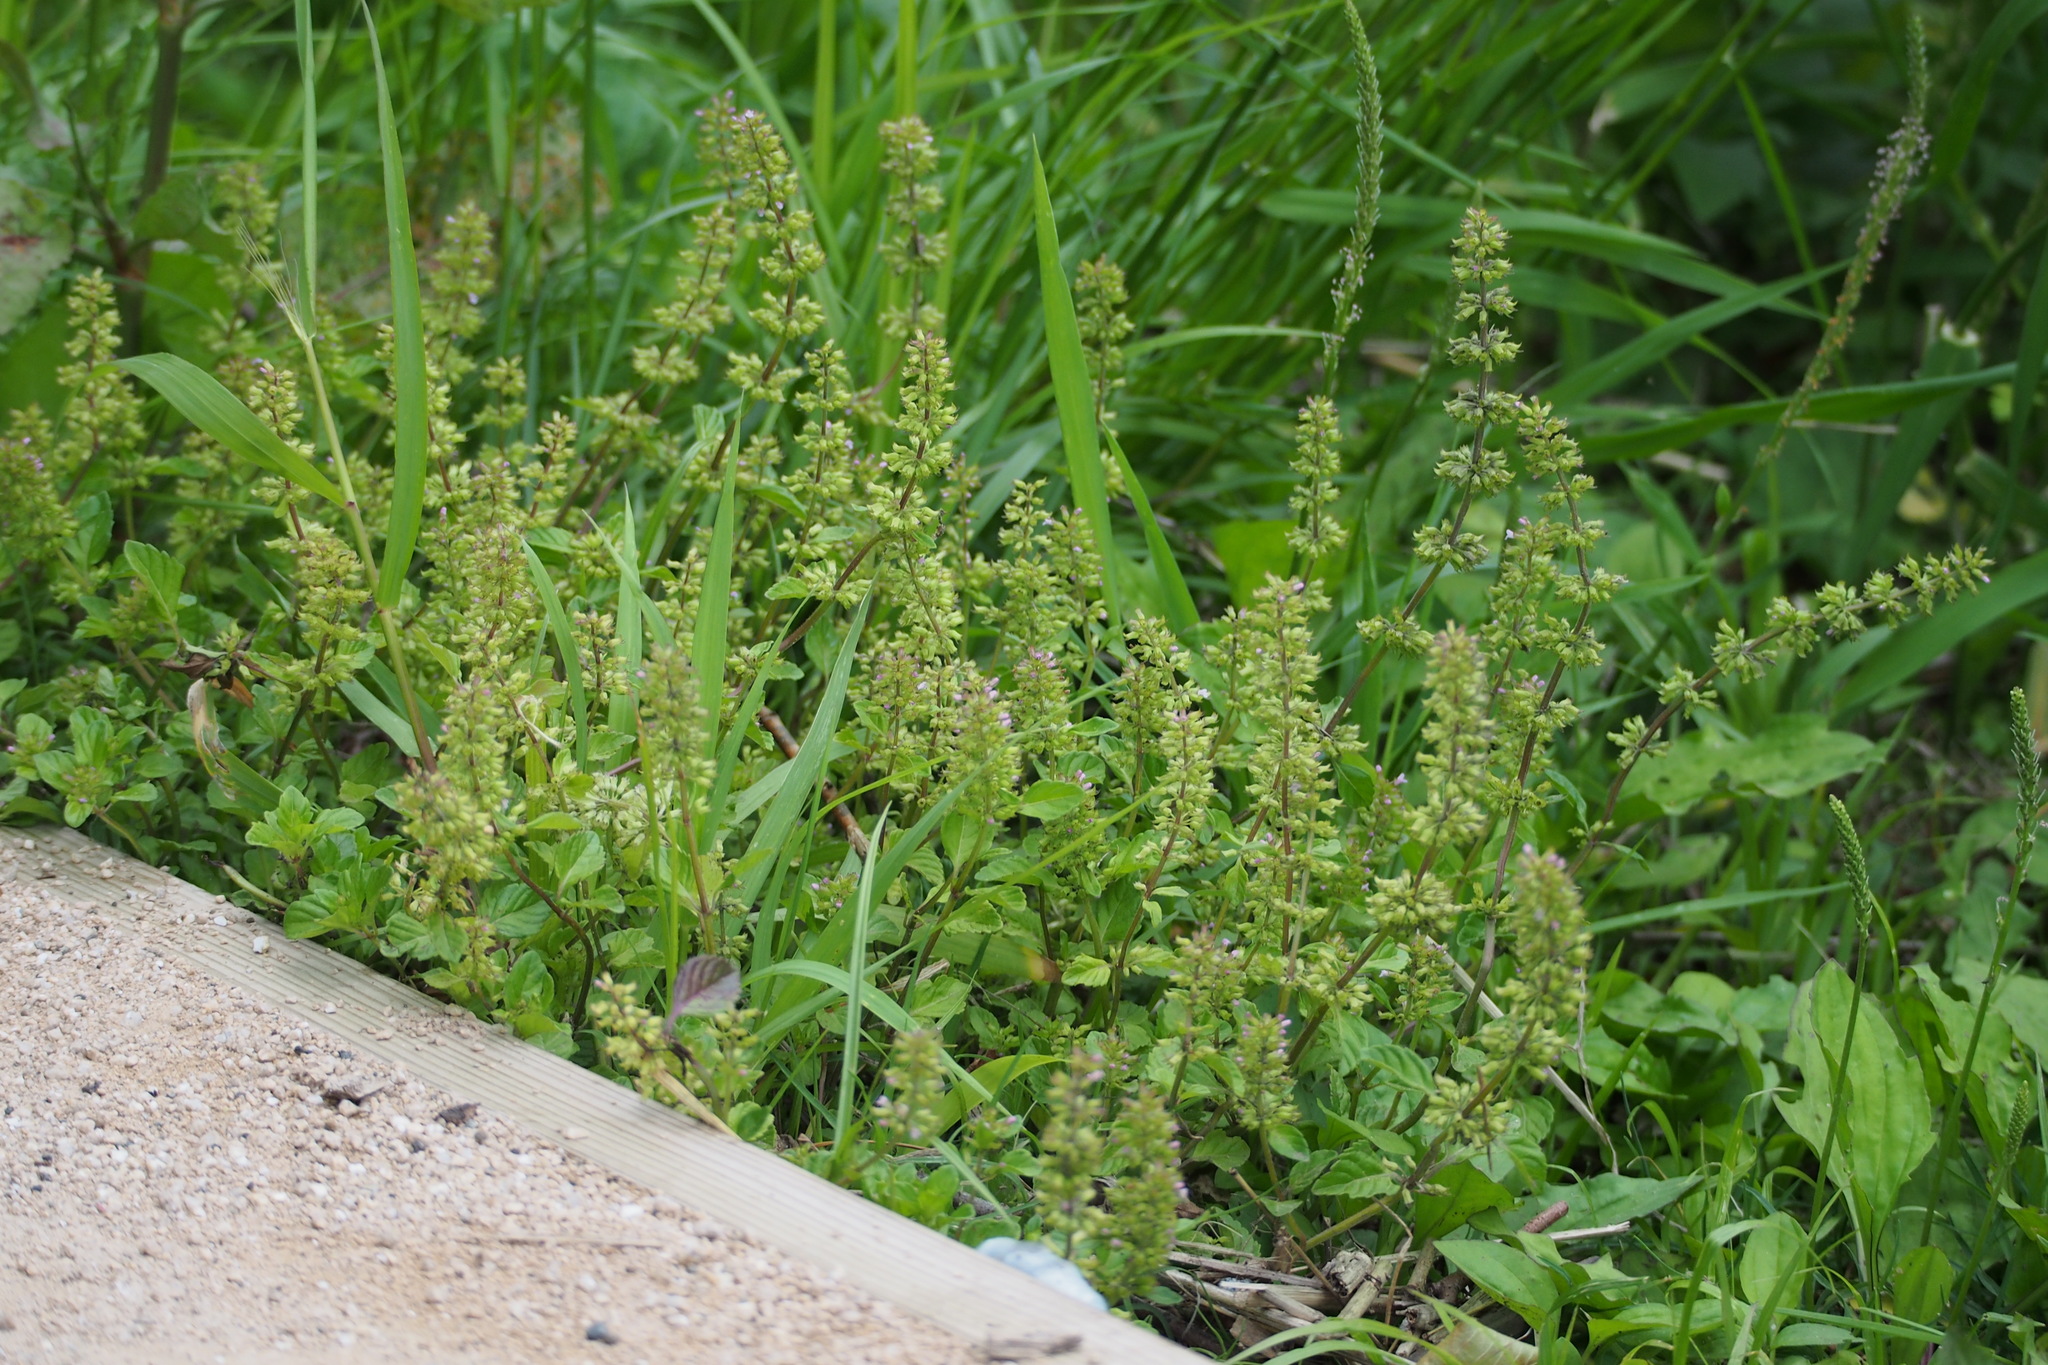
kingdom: Plantae
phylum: Tracheophyta
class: Magnoliopsida
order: Lamiales
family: Lamiaceae
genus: Clinopodium
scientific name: Clinopodium gracile
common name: Slender wild basil
